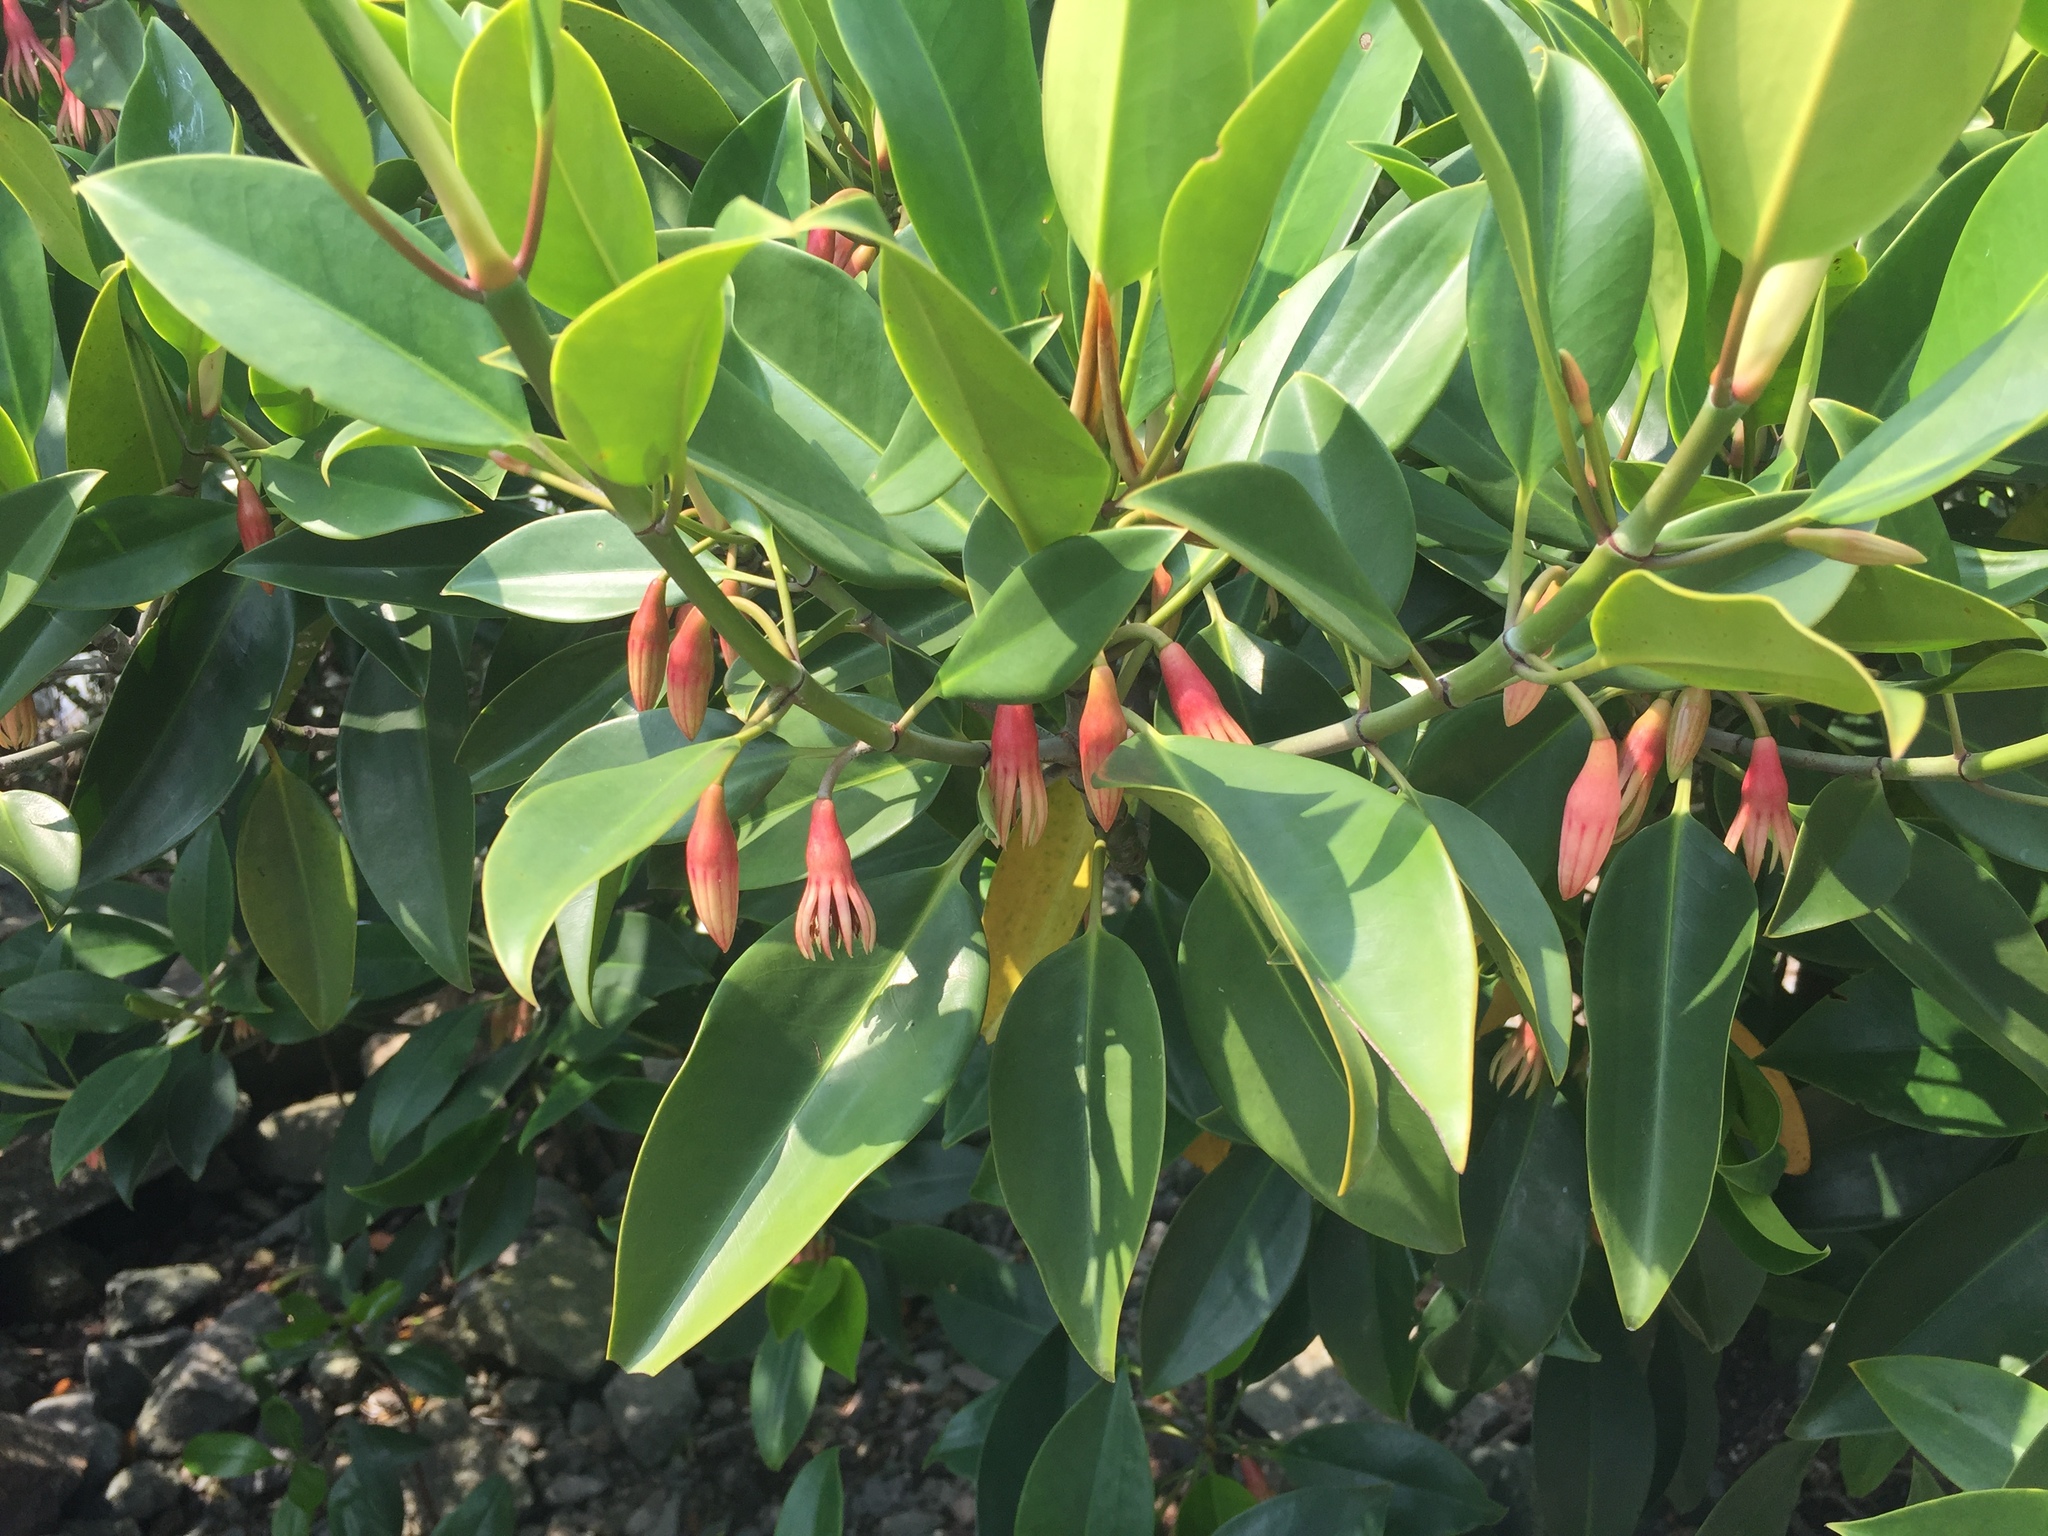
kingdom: Plantae
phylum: Tracheophyta
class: Magnoliopsida
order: Malpighiales
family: Rhizophoraceae
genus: Bruguiera
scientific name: Bruguiera gymnorhiza
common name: Oriental mangrove
